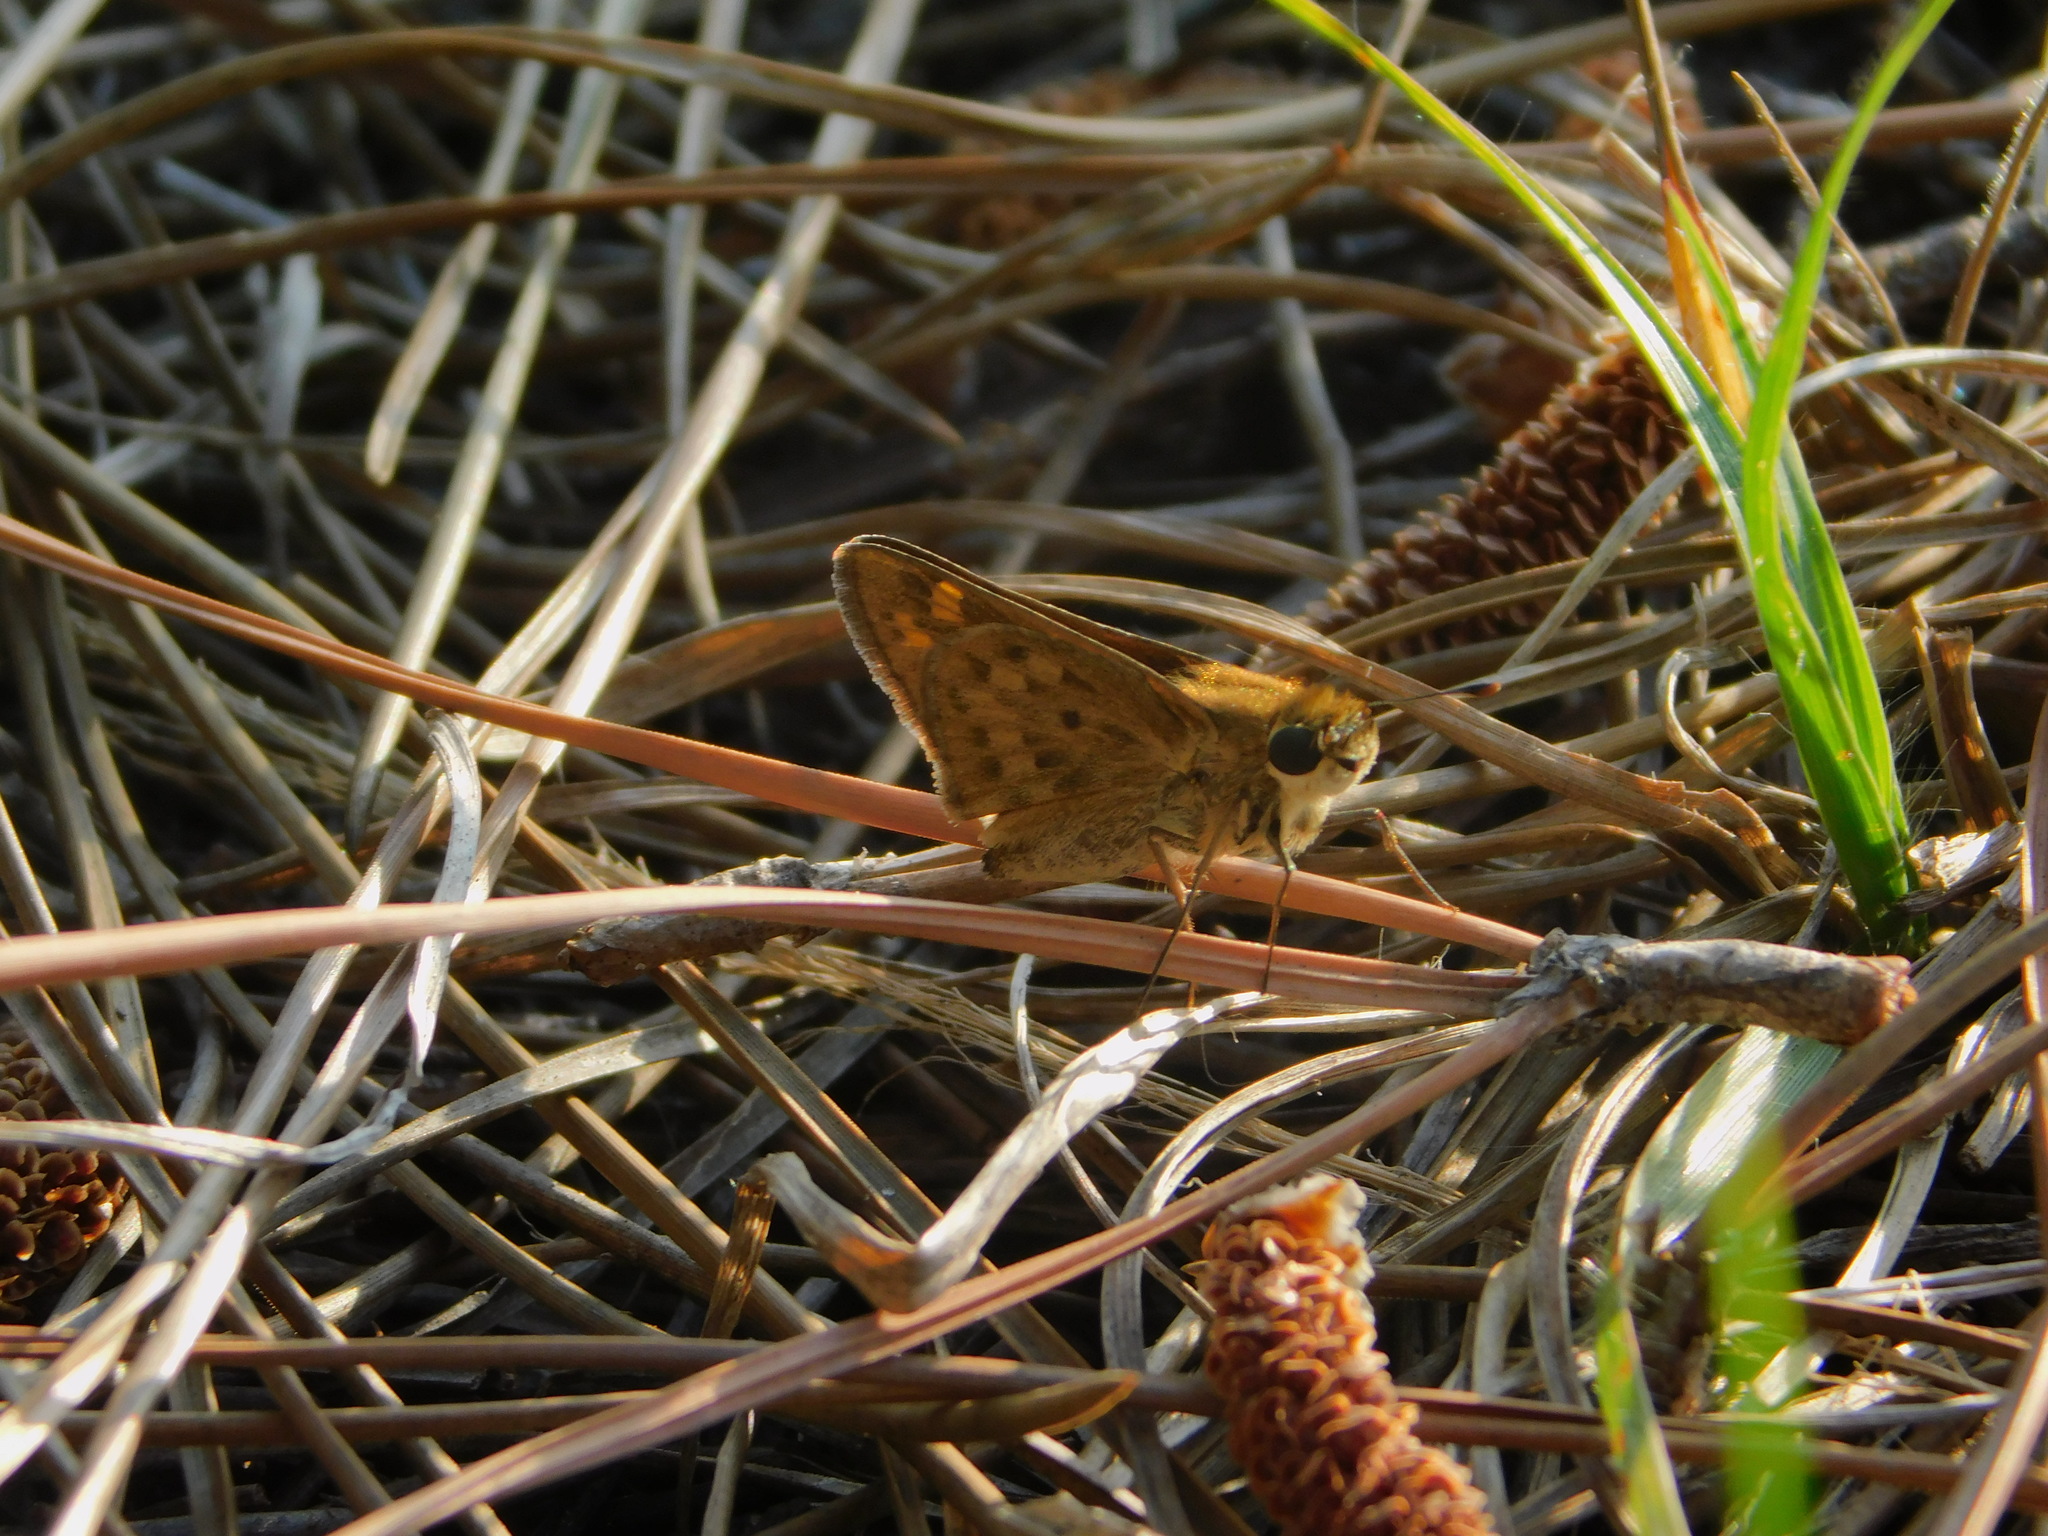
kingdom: Animalia
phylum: Arthropoda
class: Insecta
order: Lepidoptera
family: Hesperiidae
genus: Hylephila
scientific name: Hylephila phyleus
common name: Fiery skipper
